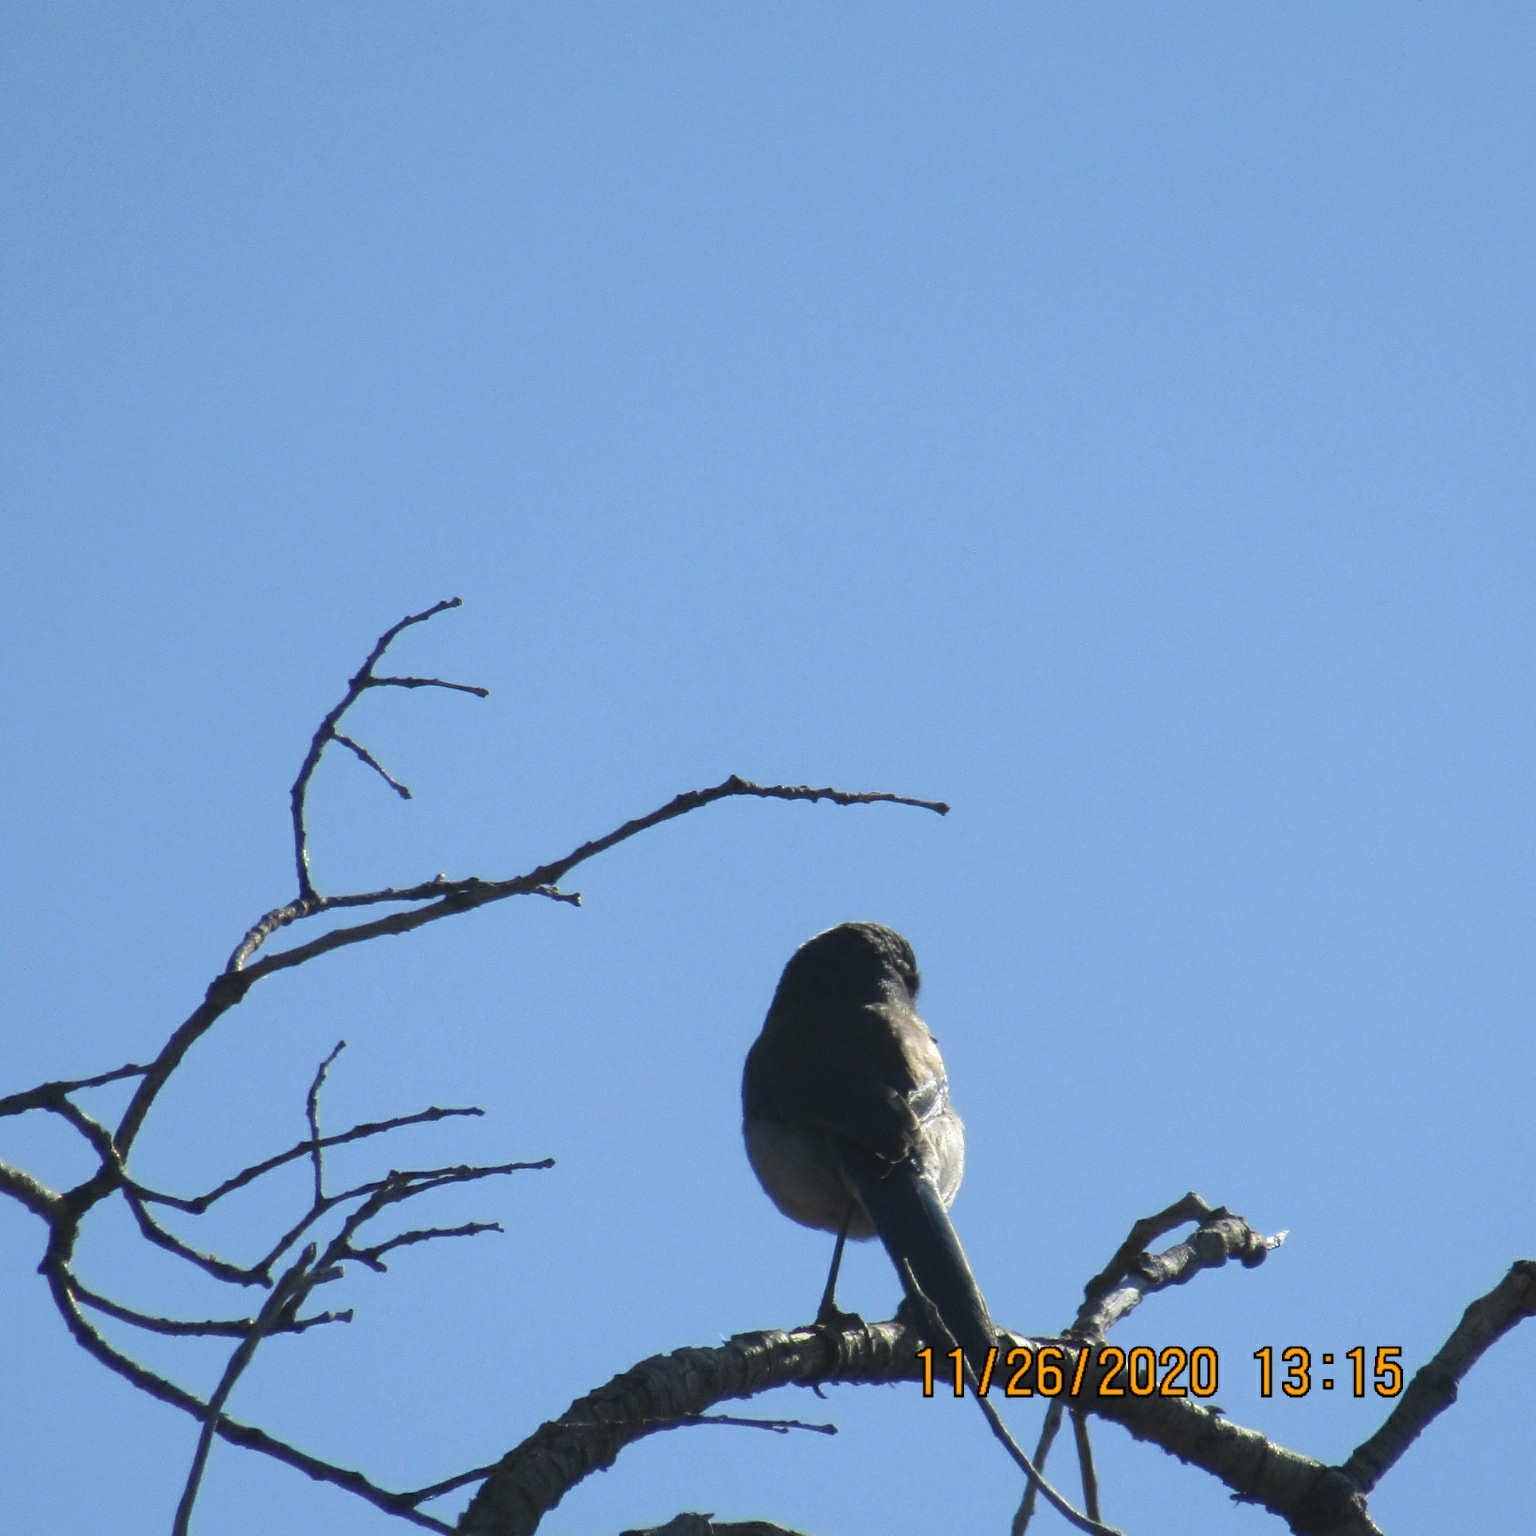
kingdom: Animalia
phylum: Chordata
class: Aves
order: Passeriformes
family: Corvidae
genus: Aphelocoma
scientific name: Aphelocoma californica
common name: California scrub-jay
